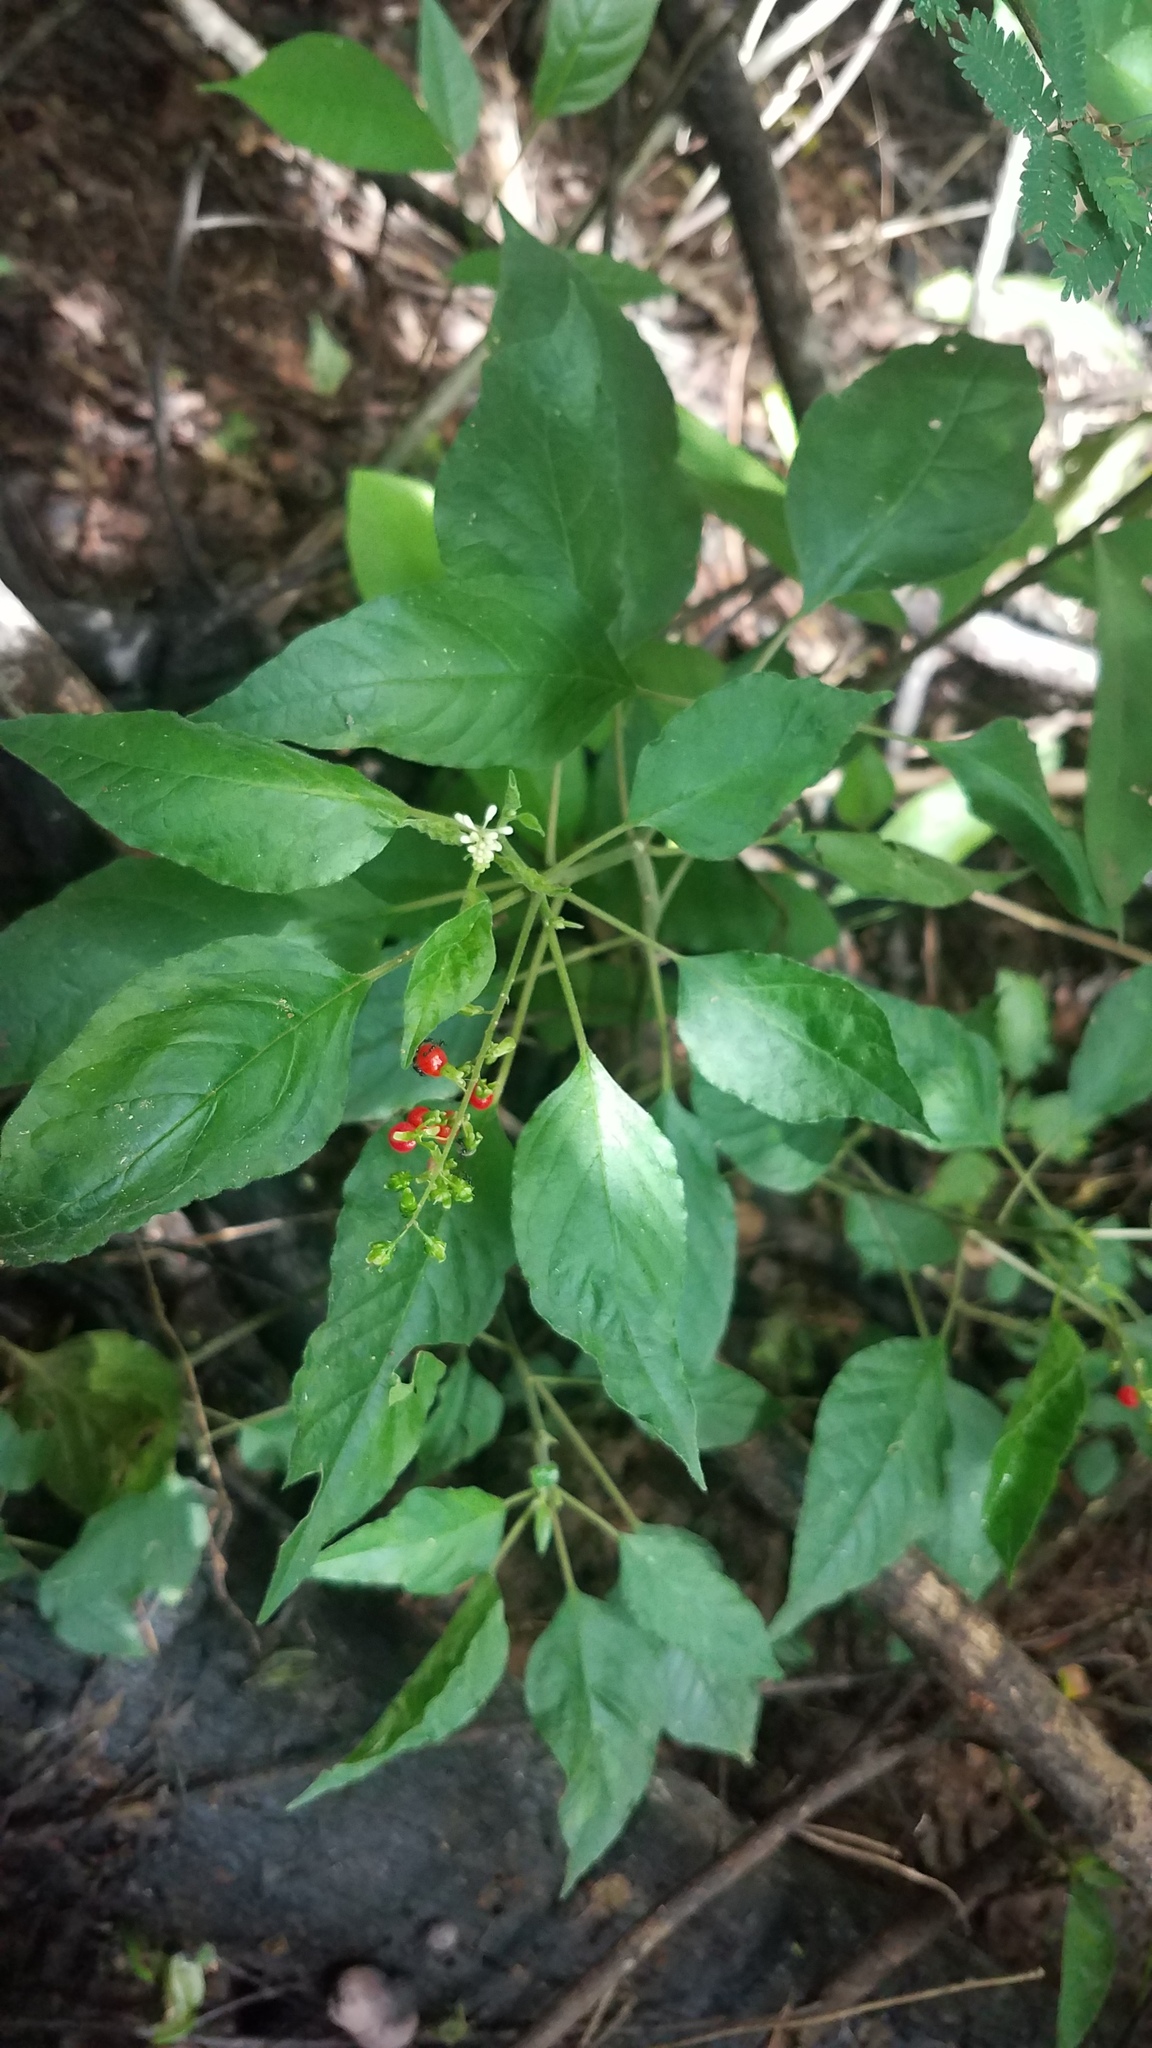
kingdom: Plantae
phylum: Tracheophyta
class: Magnoliopsida
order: Caryophyllales
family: Phytolaccaceae
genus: Rivina
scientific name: Rivina humilis
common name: Rougeplant
